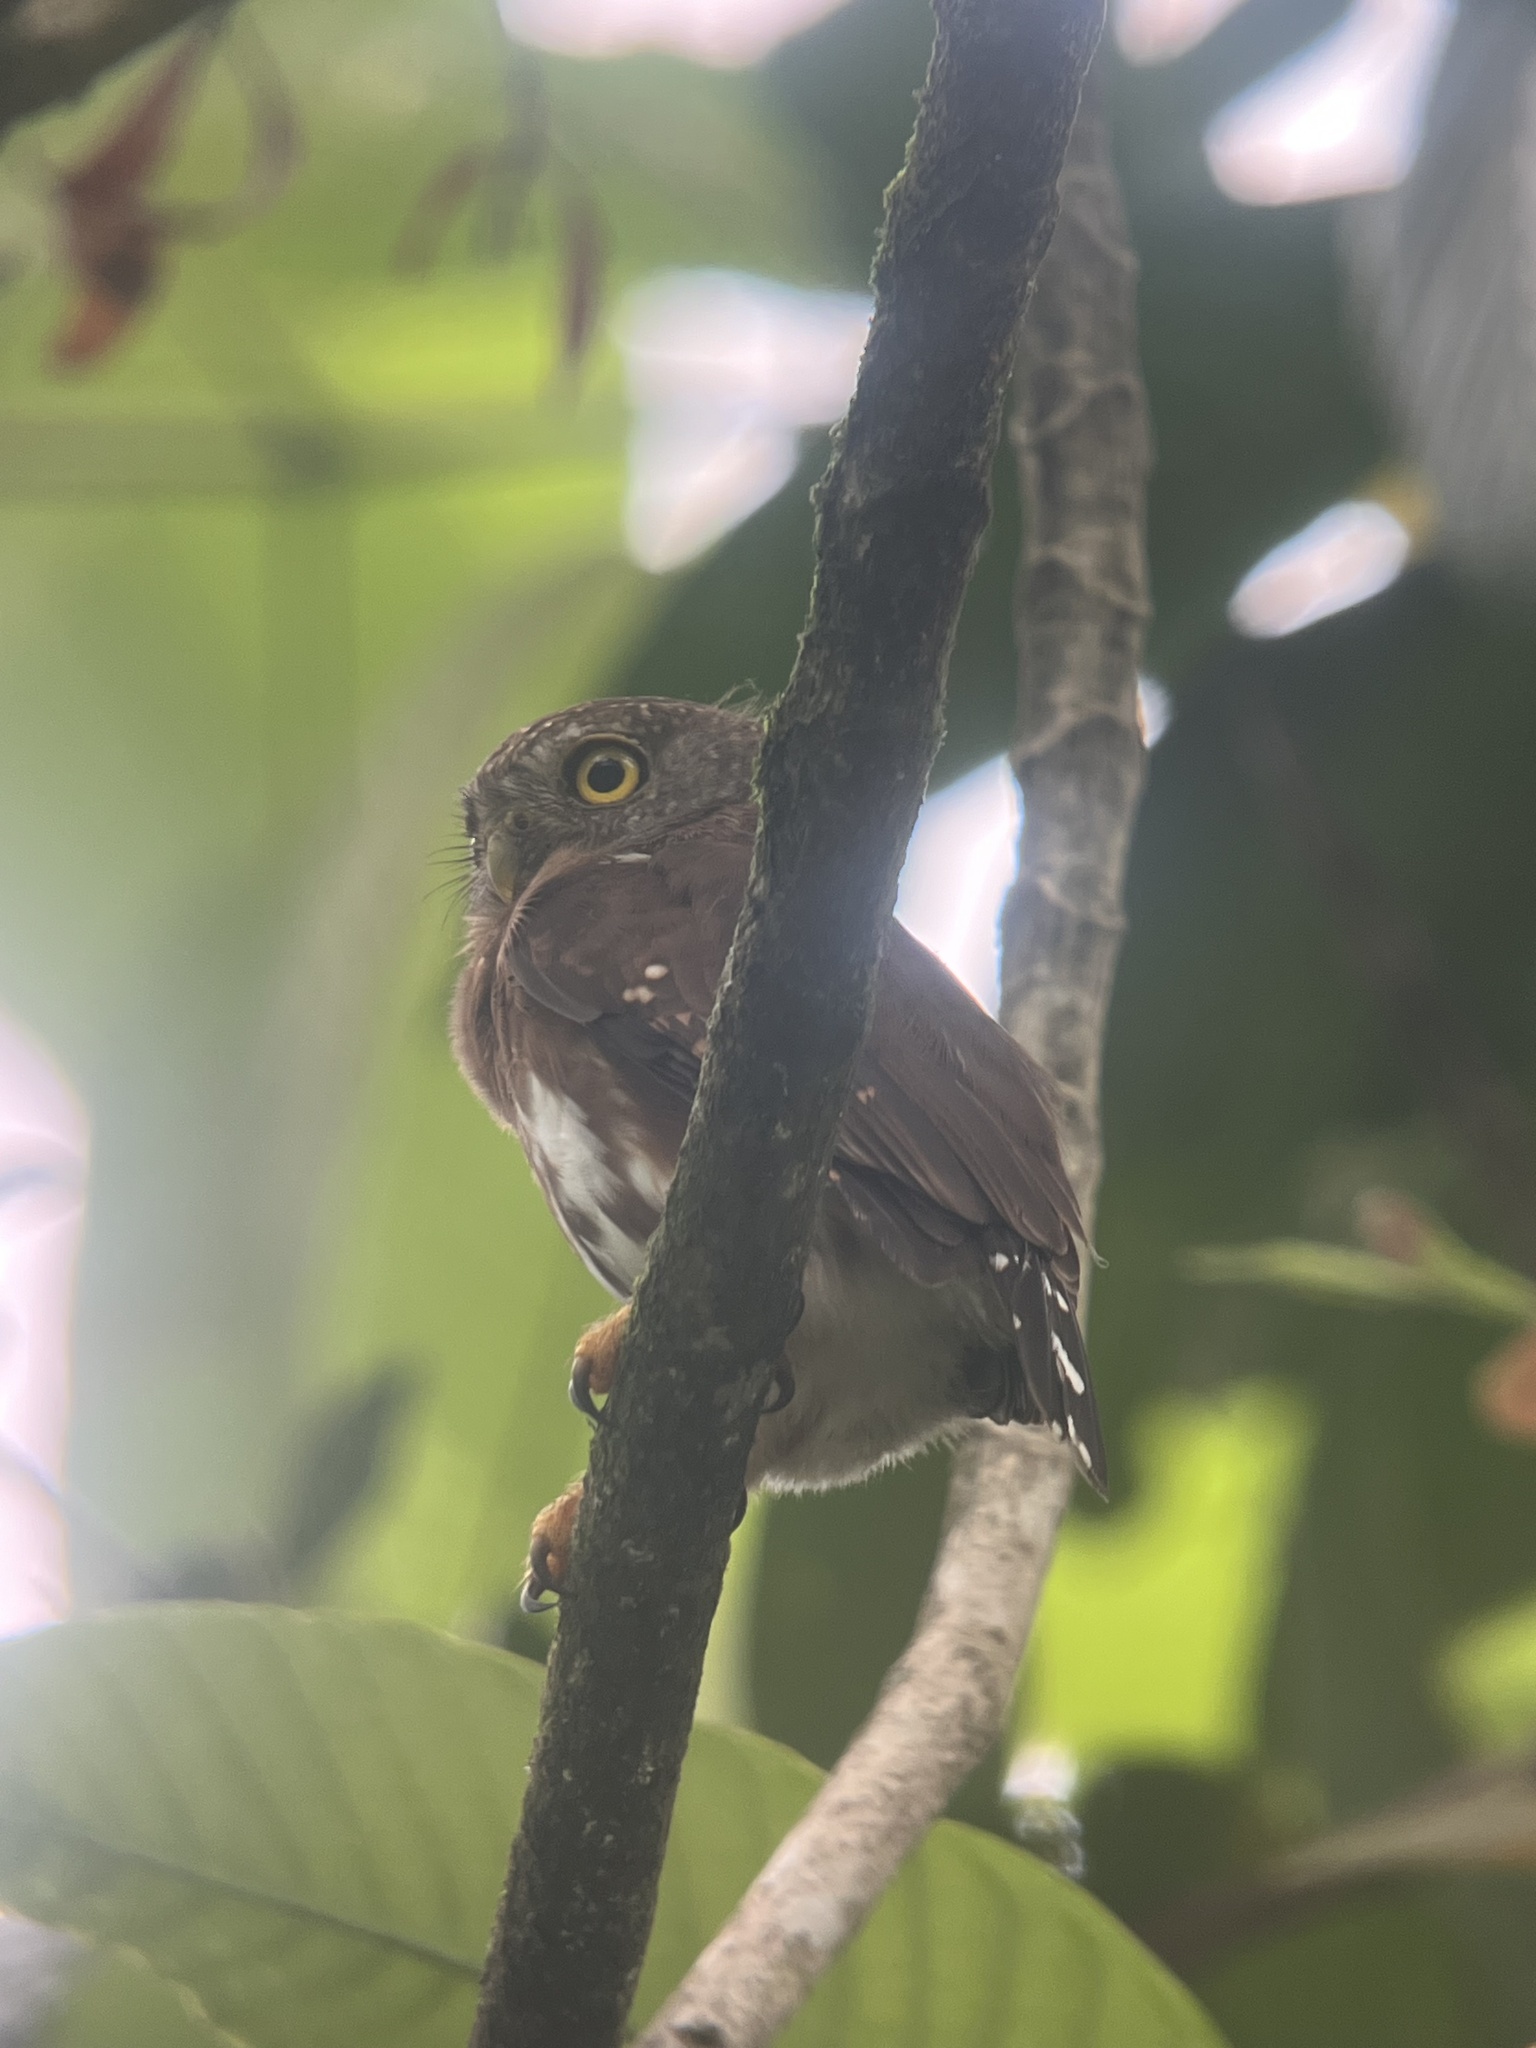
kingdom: Animalia
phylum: Chordata
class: Aves
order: Strigiformes
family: Strigidae
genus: Glaucidium
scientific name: Glaucidium griseiceps
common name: Central american pygmy-owl
